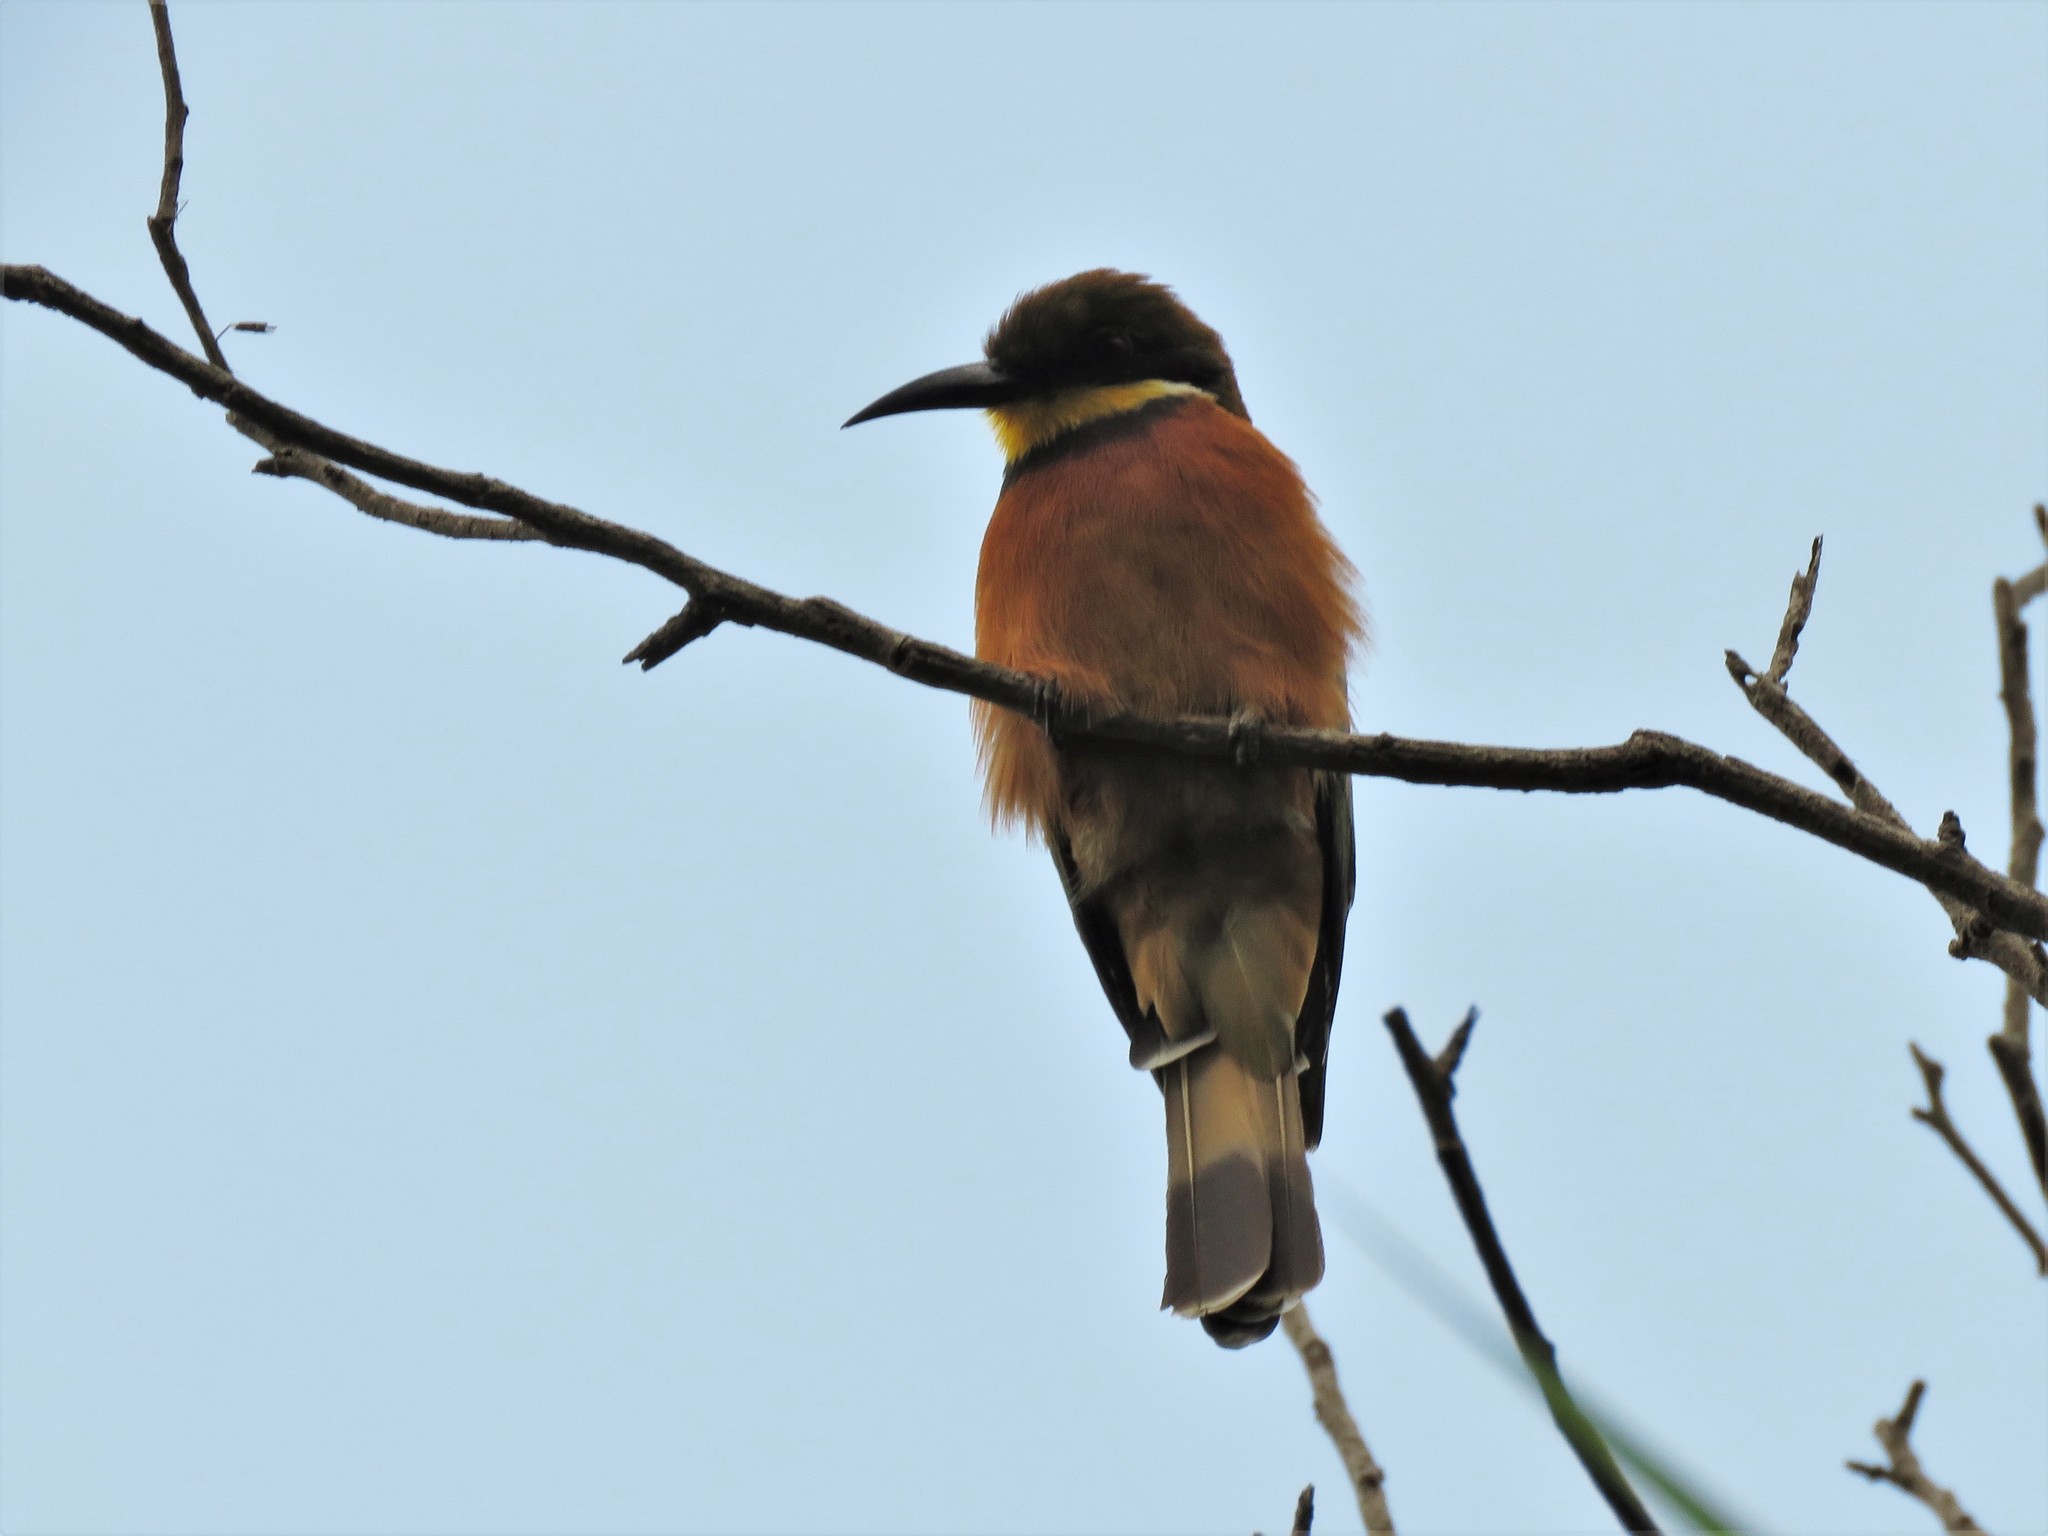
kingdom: Animalia
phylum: Chordata
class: Aves
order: Coraciiformes
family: Meropidae
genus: Merops
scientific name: Merops oreobates
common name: Cinnamon-chested bee-eater
